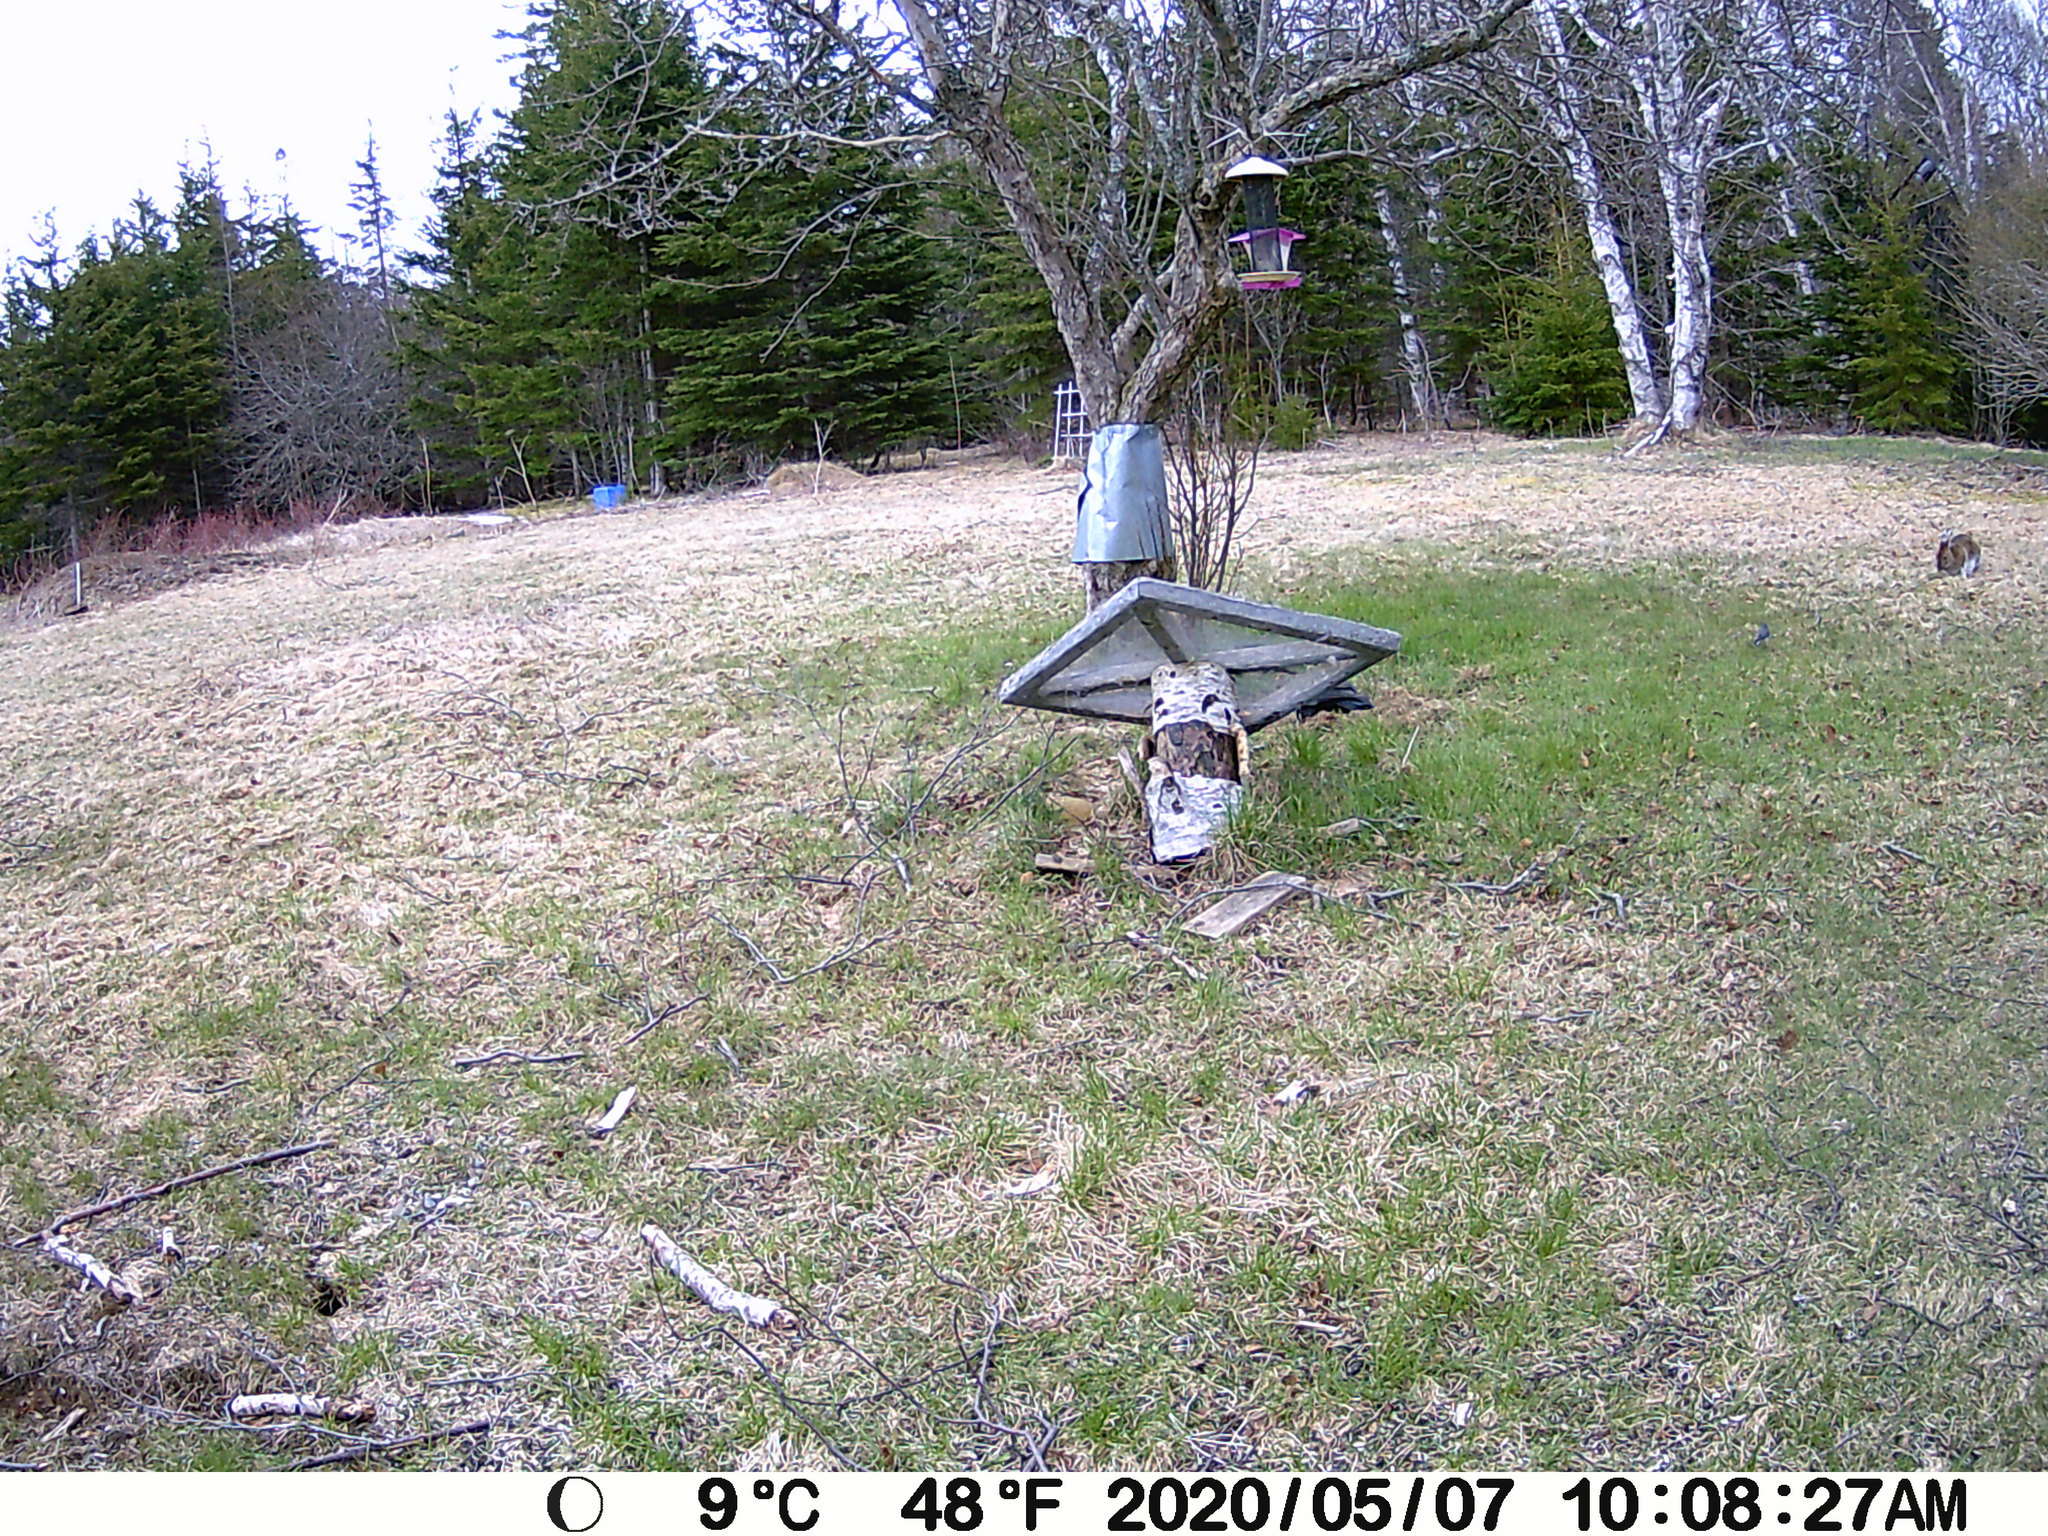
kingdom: Animalia
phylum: Chordata
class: Mammalia
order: Lagomorpha
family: Leporidae
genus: Lepus
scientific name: Lepus americanus
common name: Snowshoe hare
